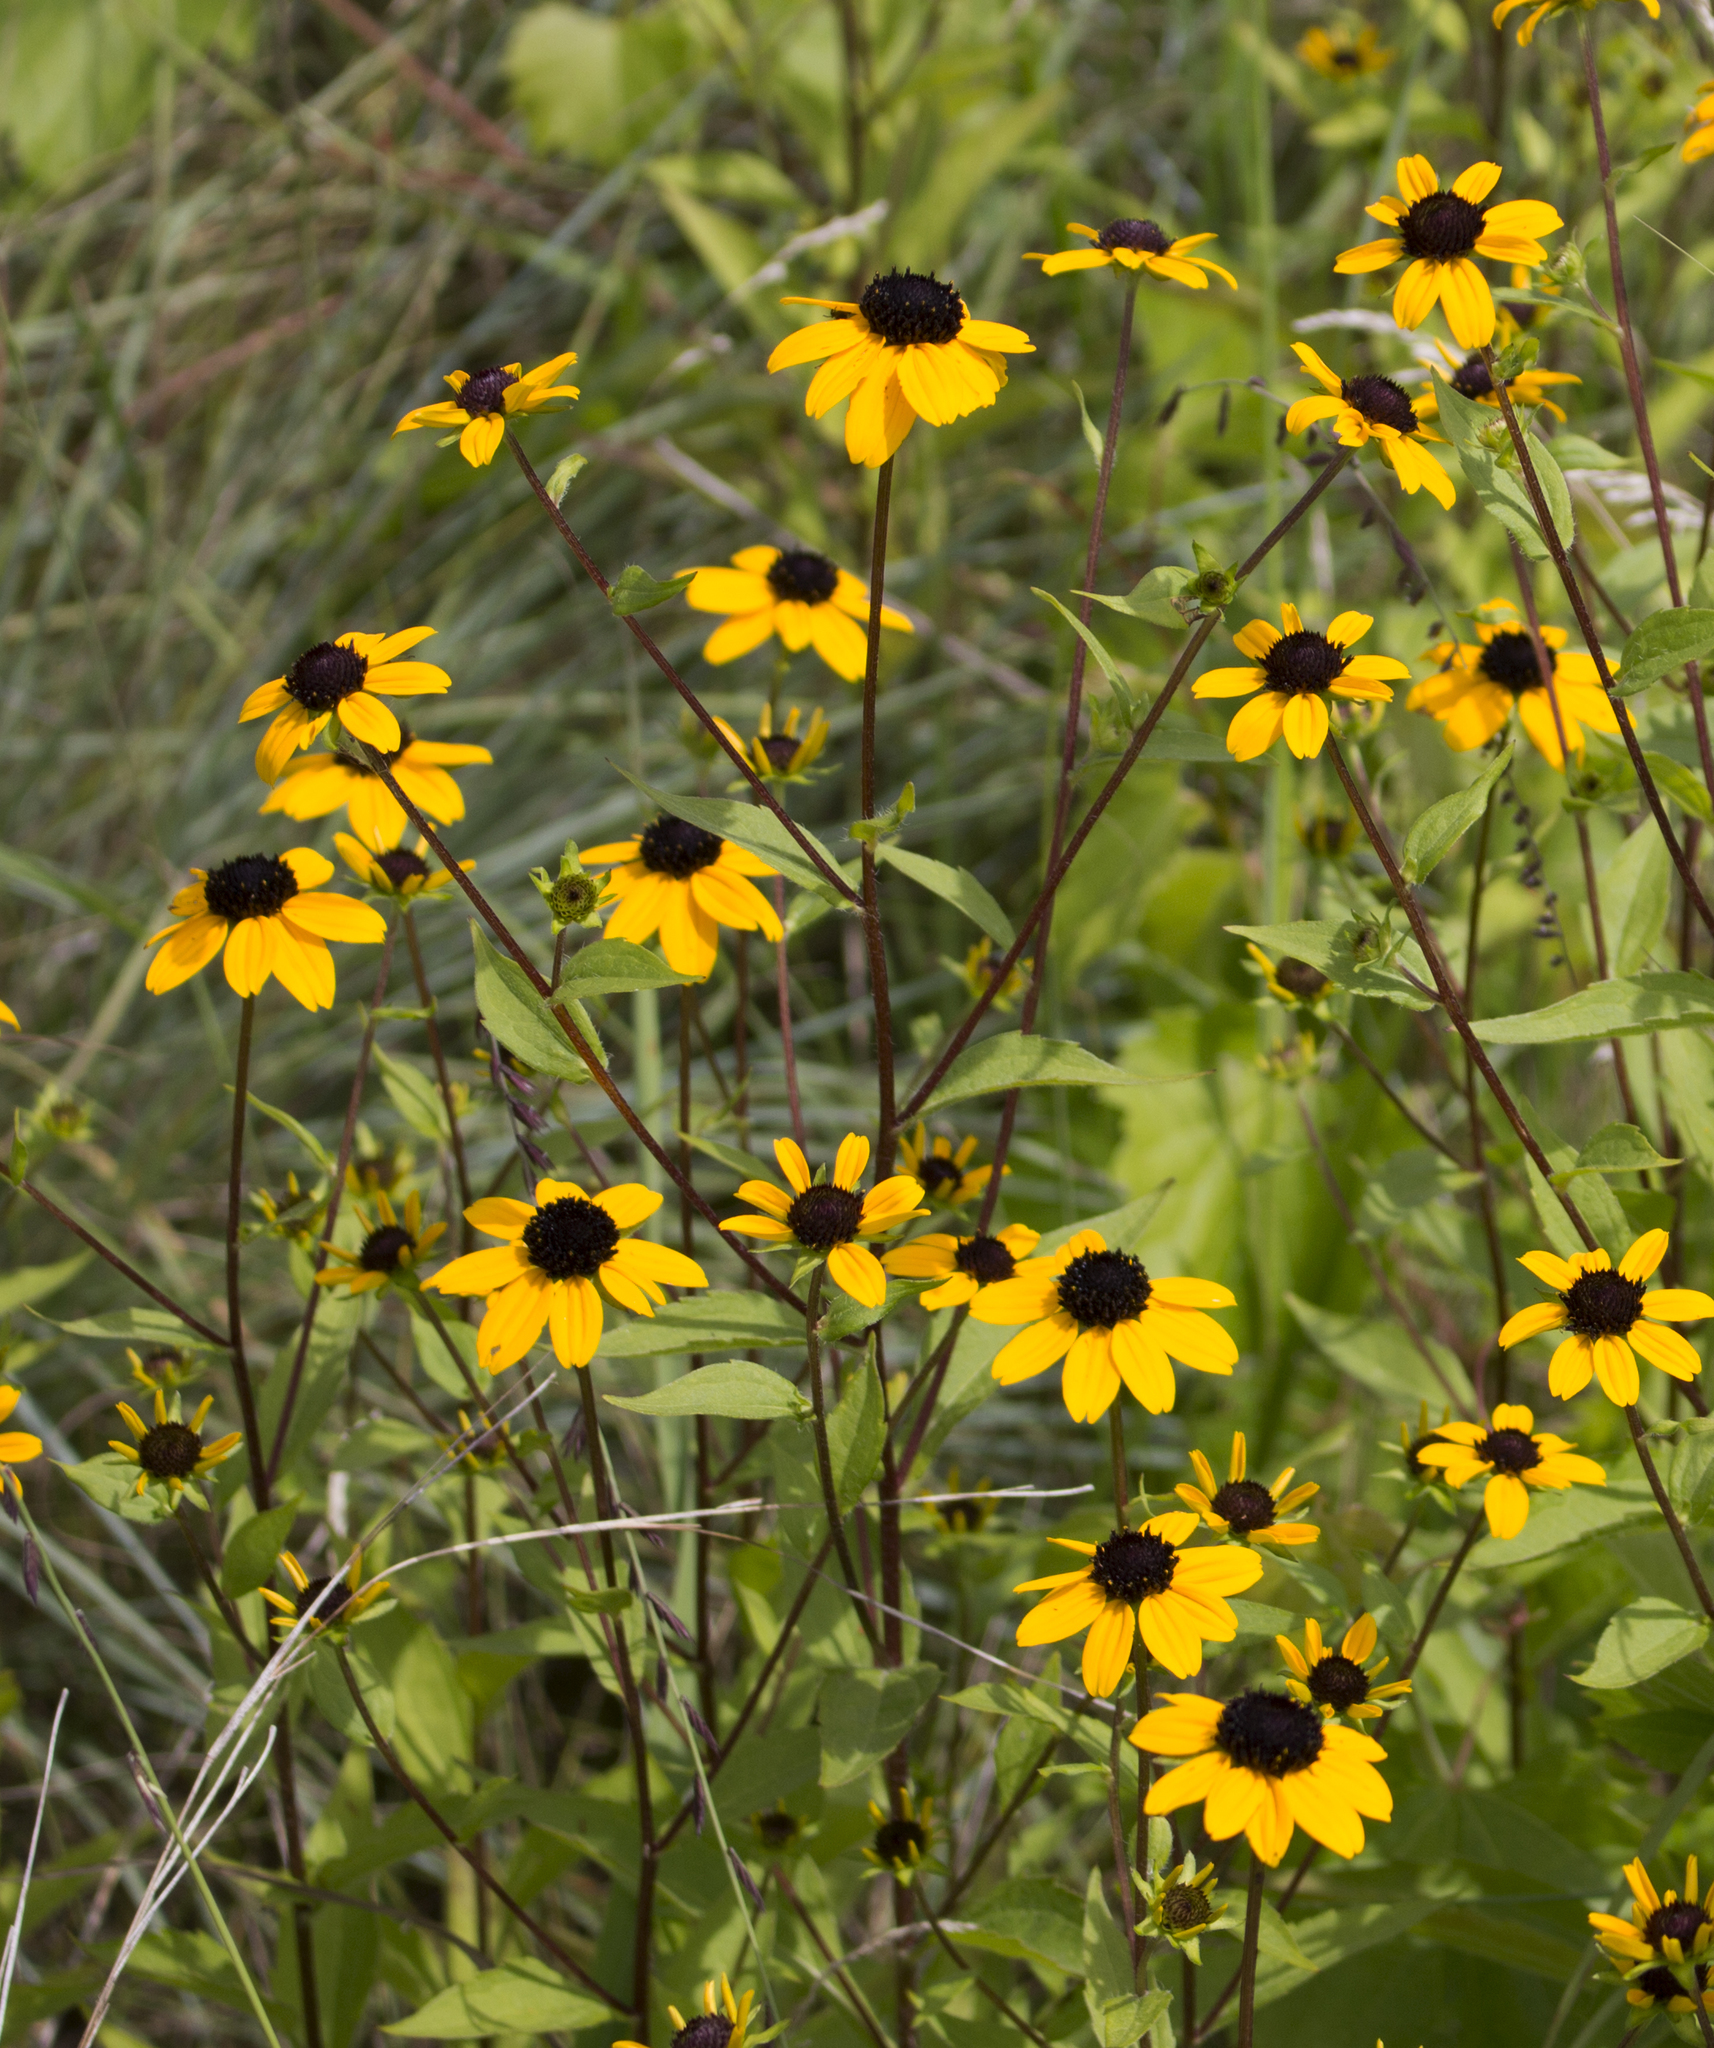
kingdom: Plantae
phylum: Tracheophyta
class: Magnoliopsida
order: Asterales
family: Asteraceae
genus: Rudbeckia
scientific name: Rudbeckia triloba
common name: Thin-leaved coneflower
